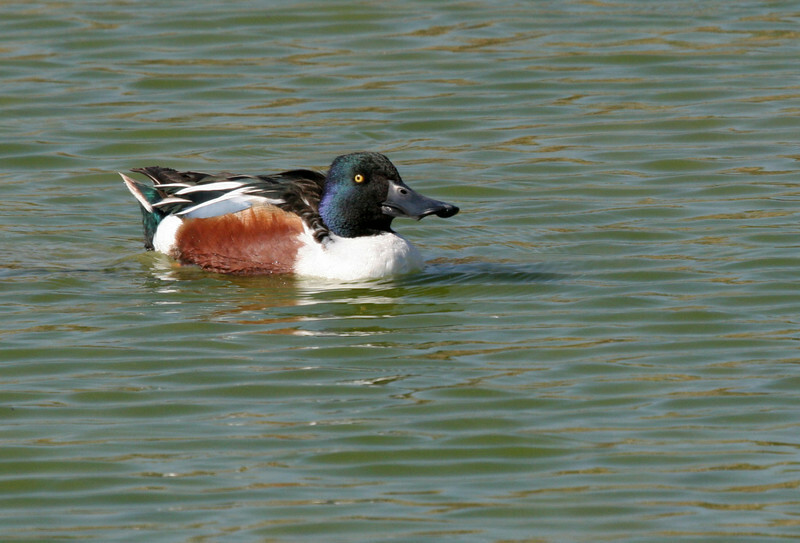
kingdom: Animalia
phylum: Chordata
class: Aves
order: Anseriformes
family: Anatidae
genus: Spatula
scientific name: Spatula clypeata
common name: Northern shoveler
